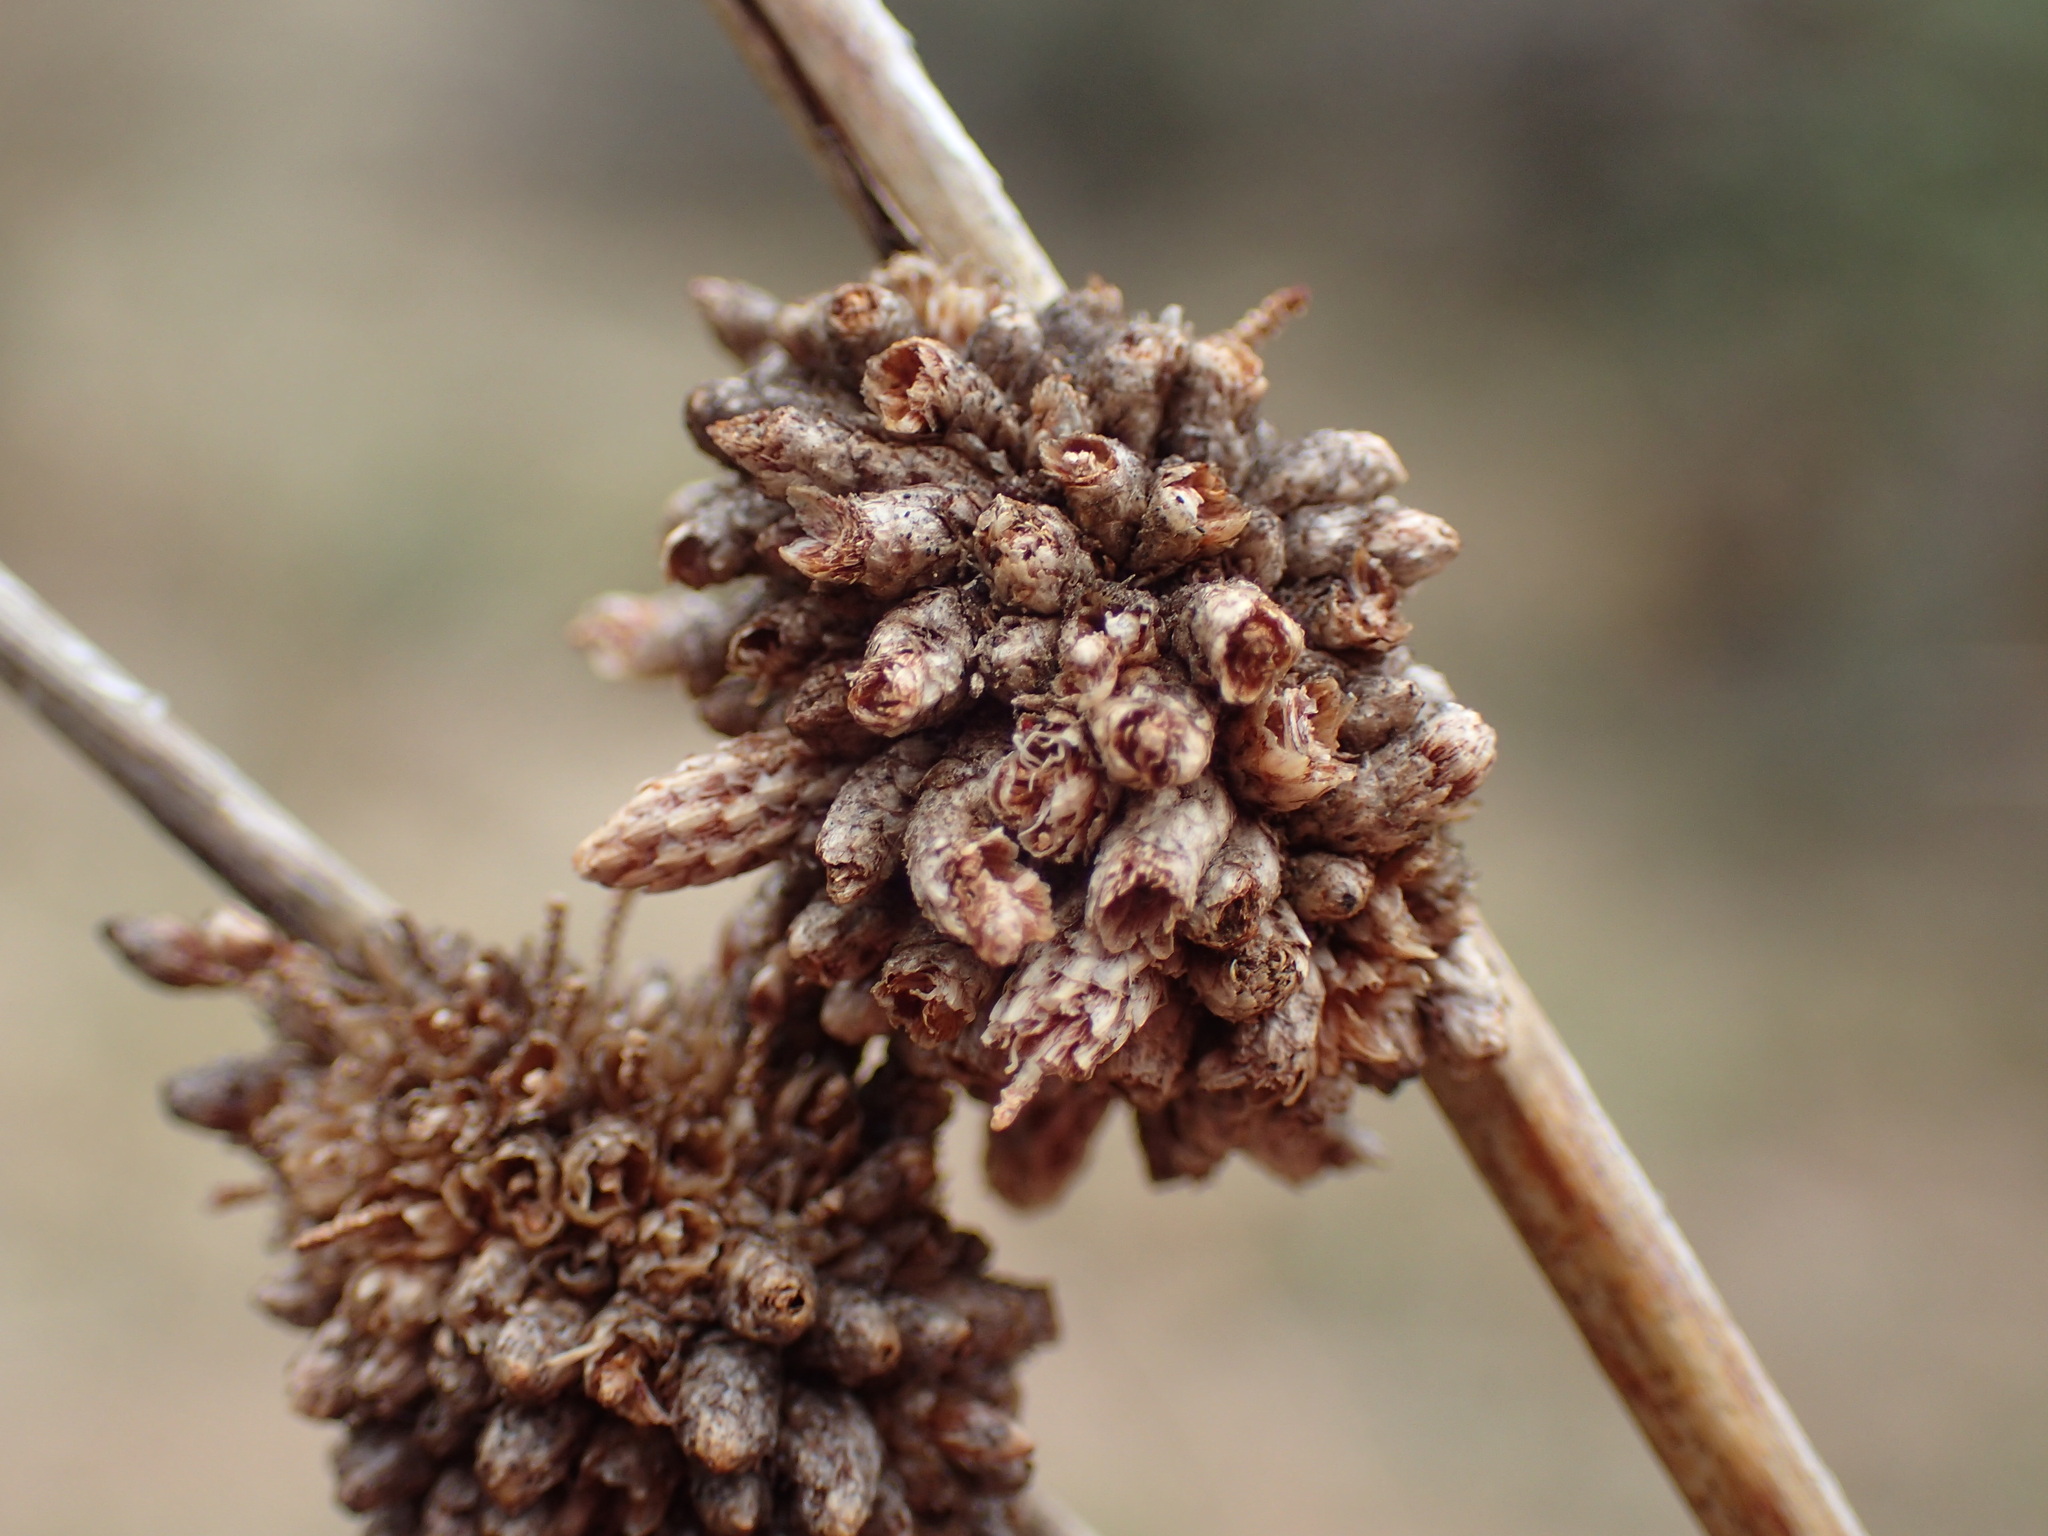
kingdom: Plantae
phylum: Tracheophyta
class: Liliopsida
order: Poales
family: Cyperaceae
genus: Afroscirpoides
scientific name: Afroscirpoides dioeca
